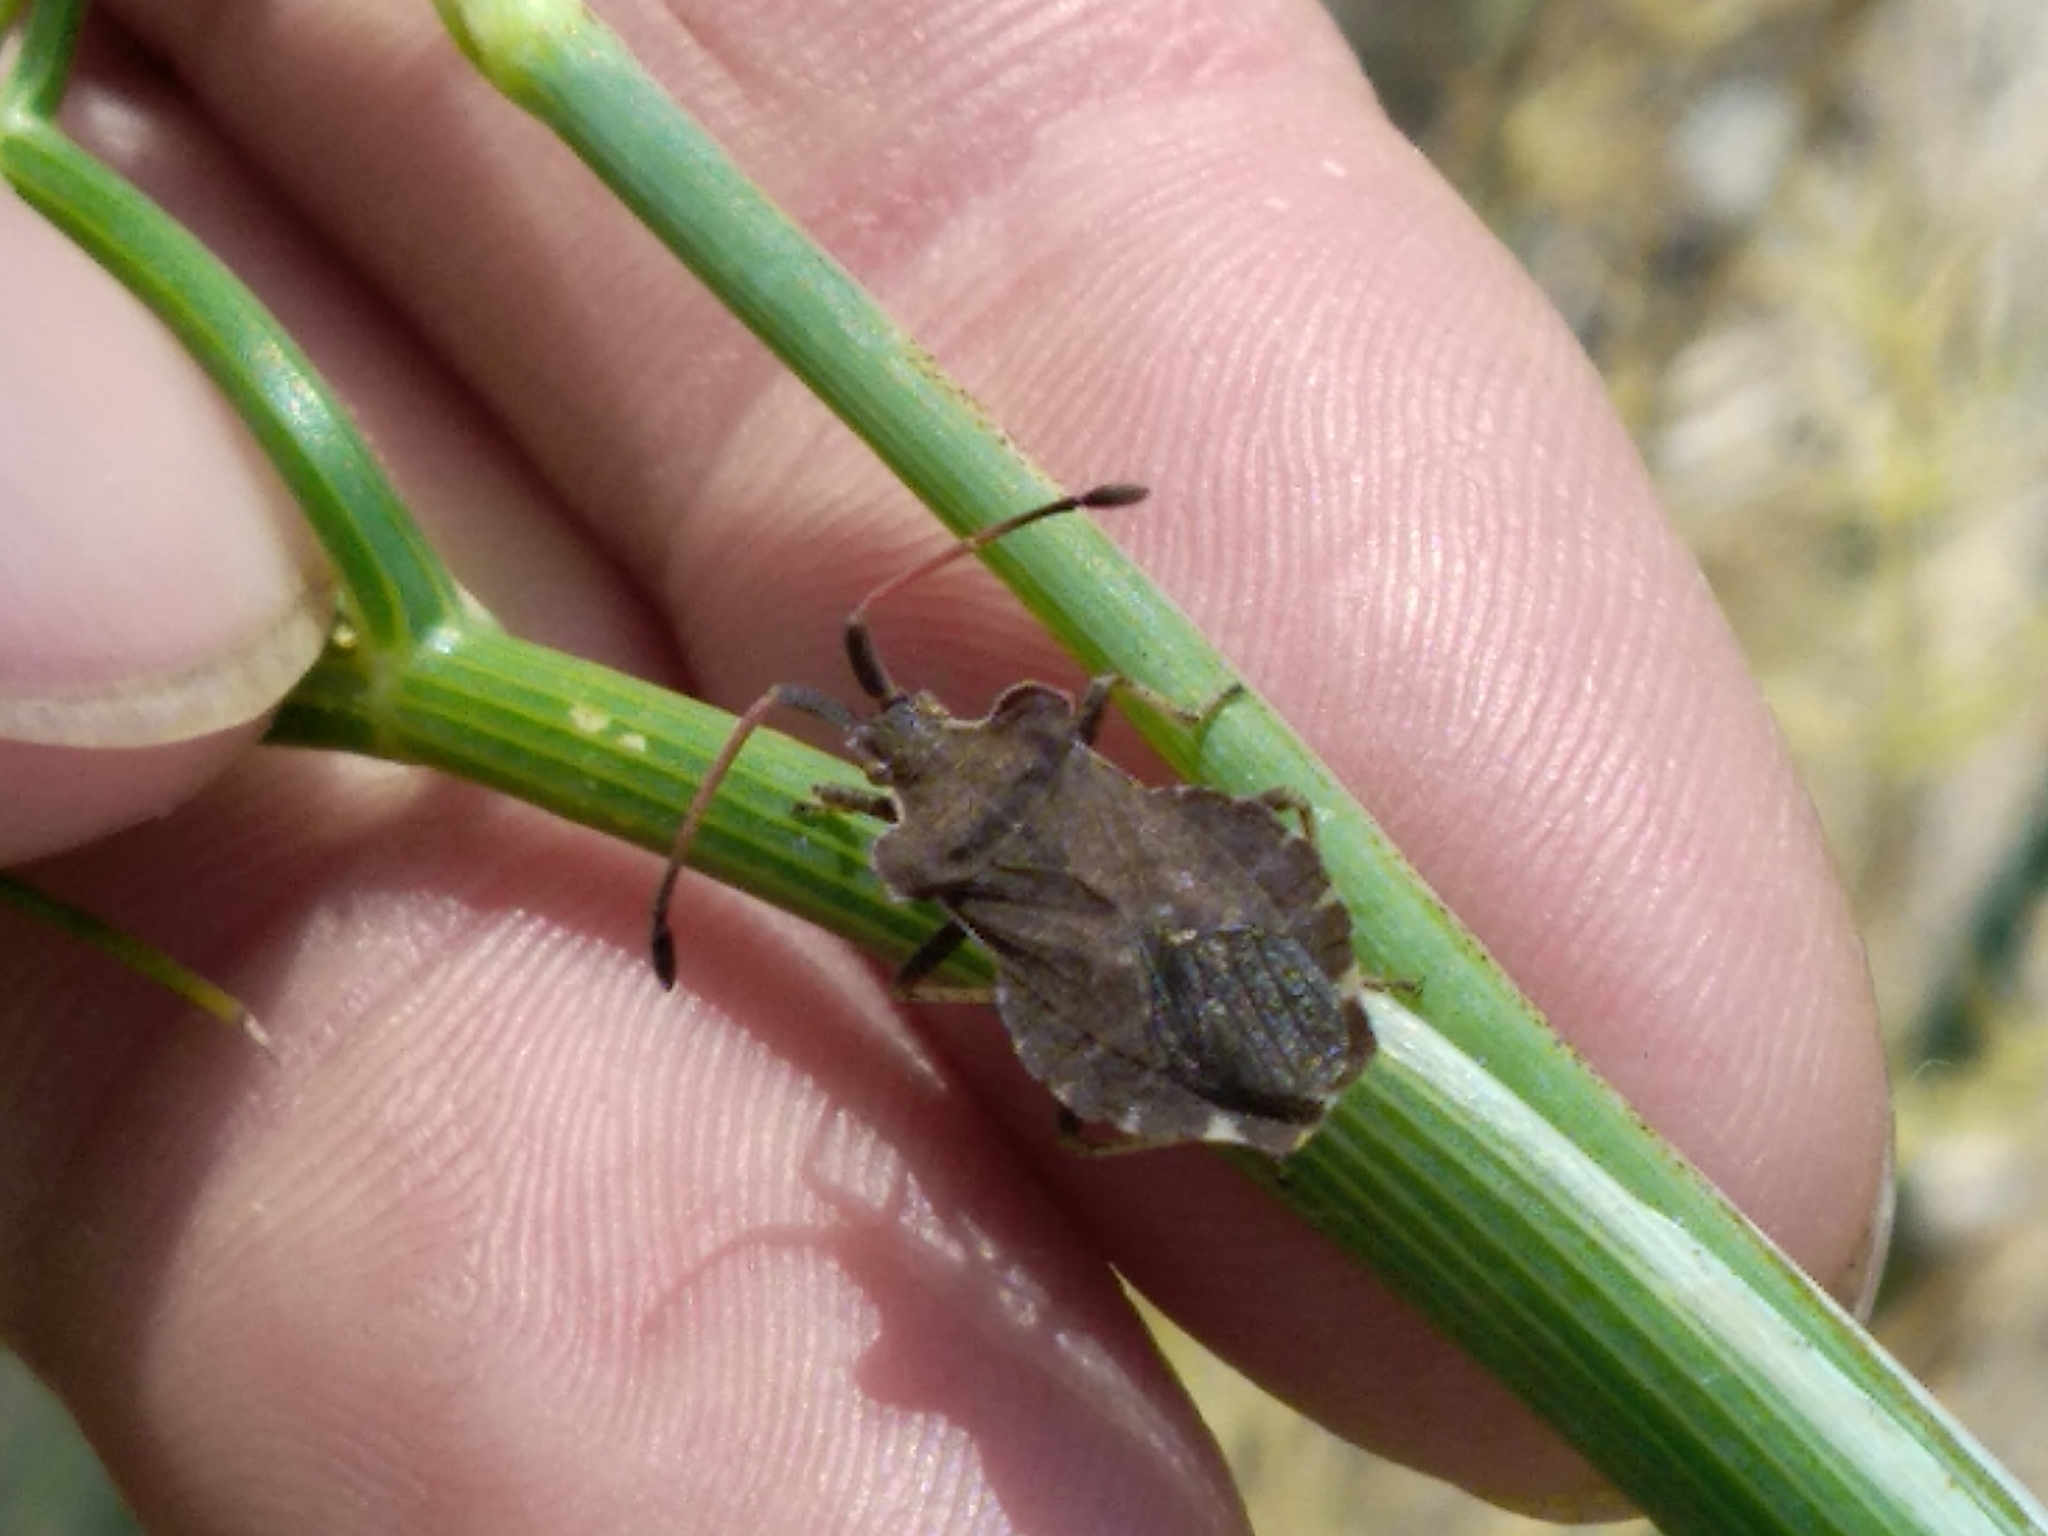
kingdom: Animalia
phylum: Arthropoda
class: Insecta
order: Hemiptera
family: Coreidae
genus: Enoplops
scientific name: Enoplops scapha
